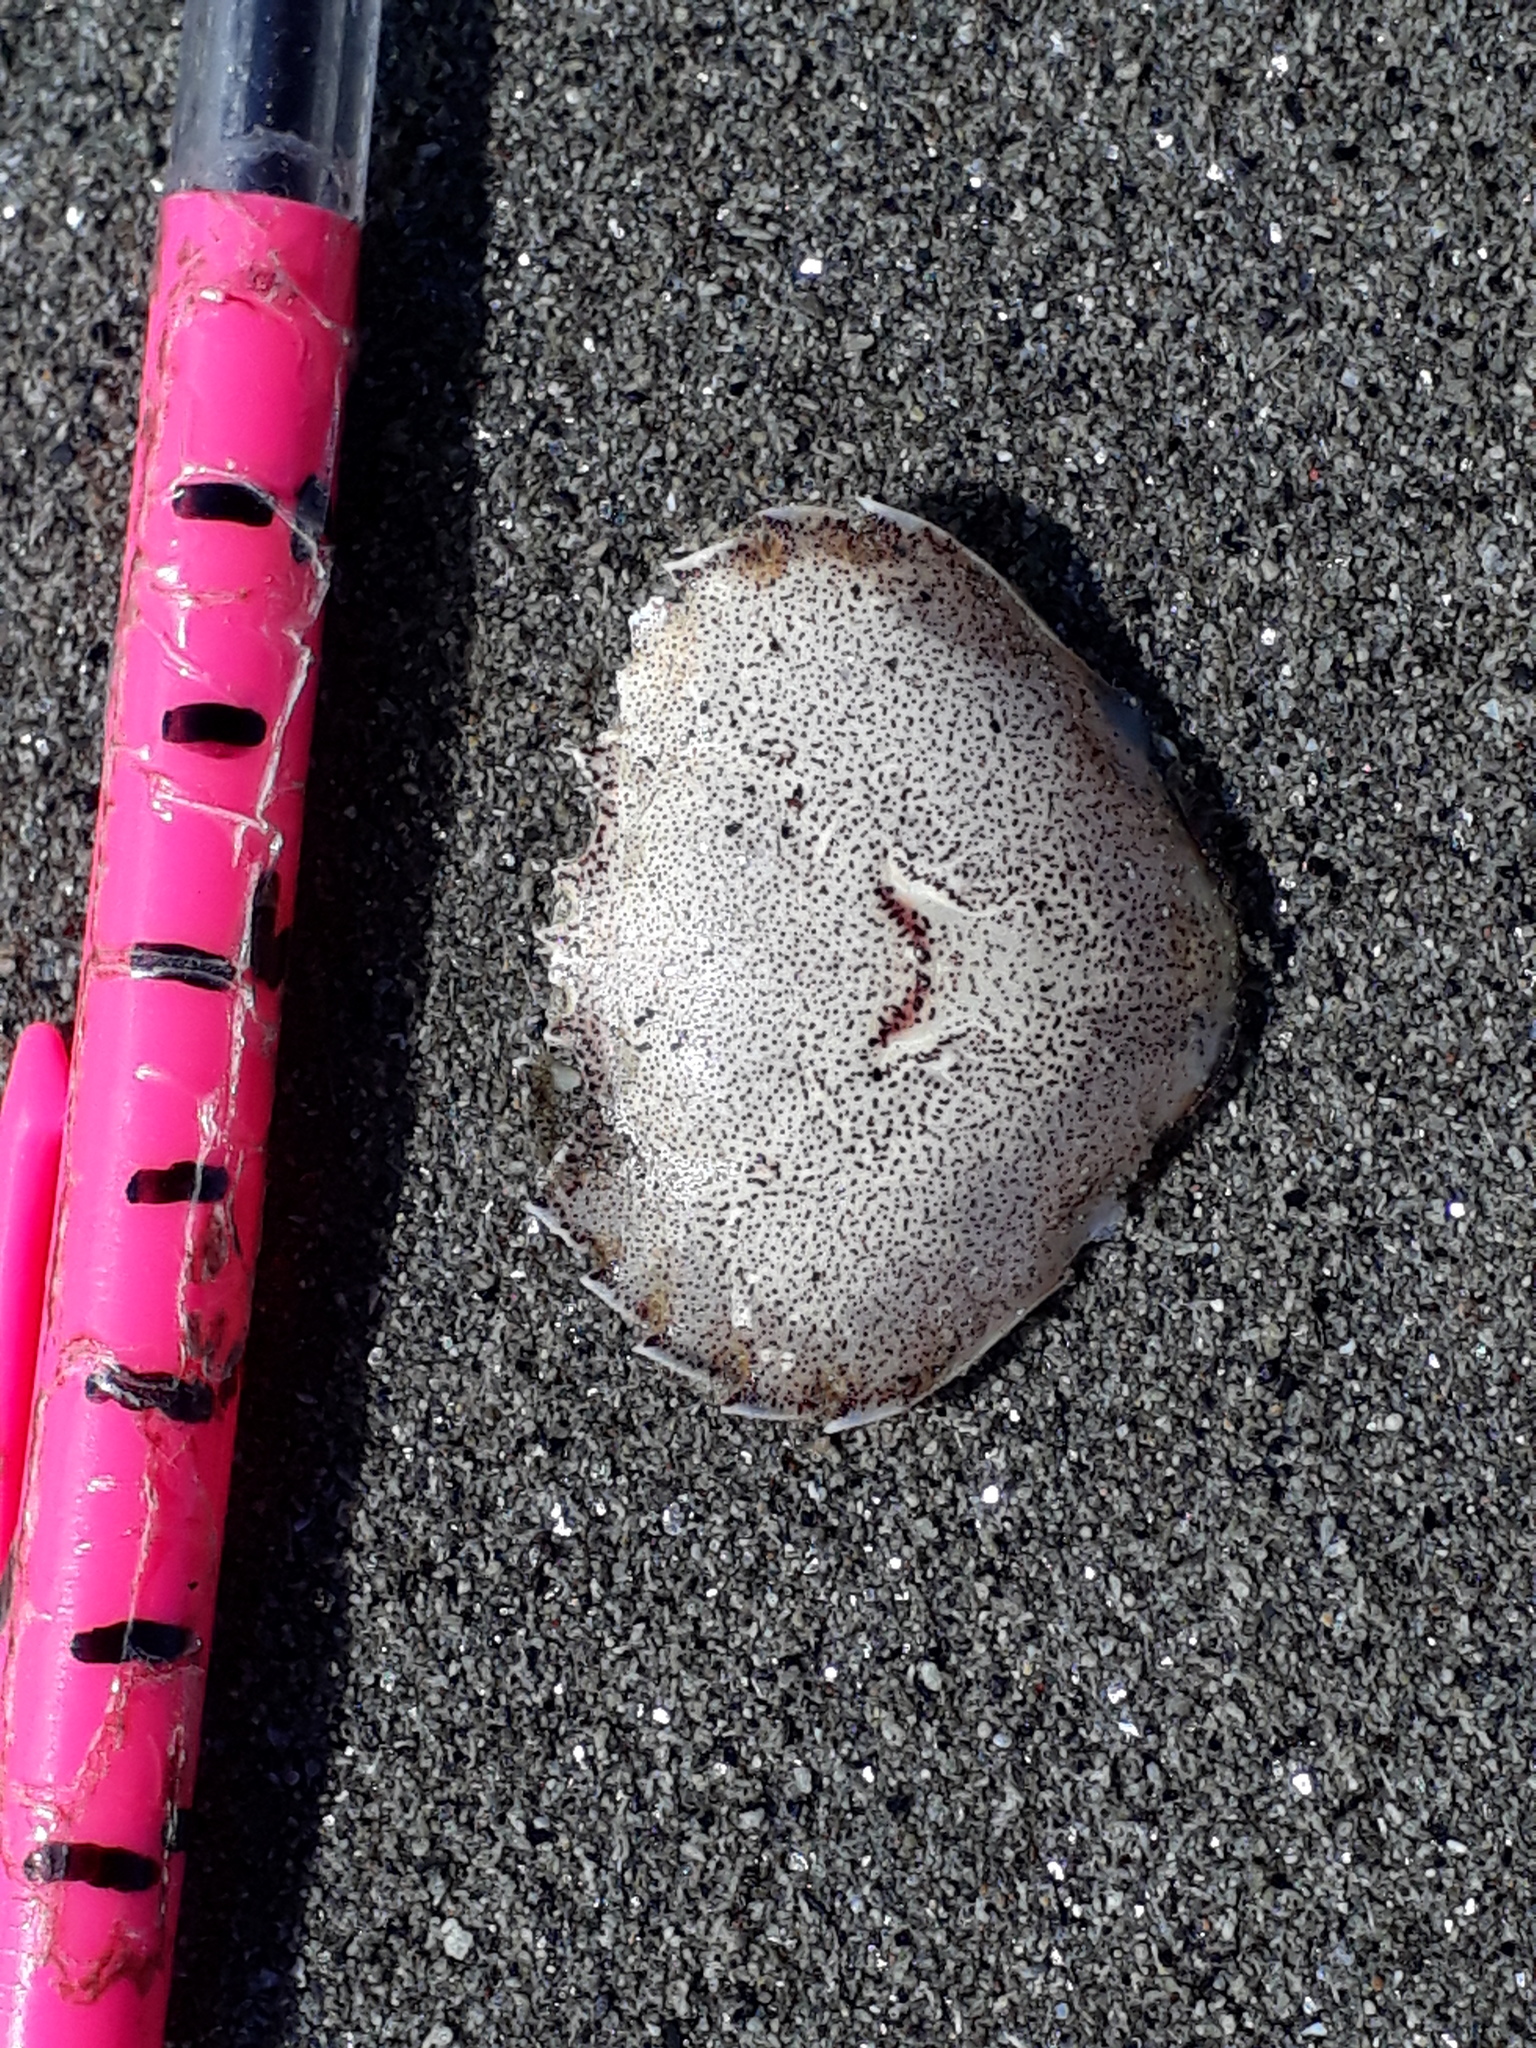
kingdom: Animalia
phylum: Arthropoda
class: Malacostraca
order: Decapoda
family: Ovalipidae
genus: Ovalipes
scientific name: Ovalipes catharus
